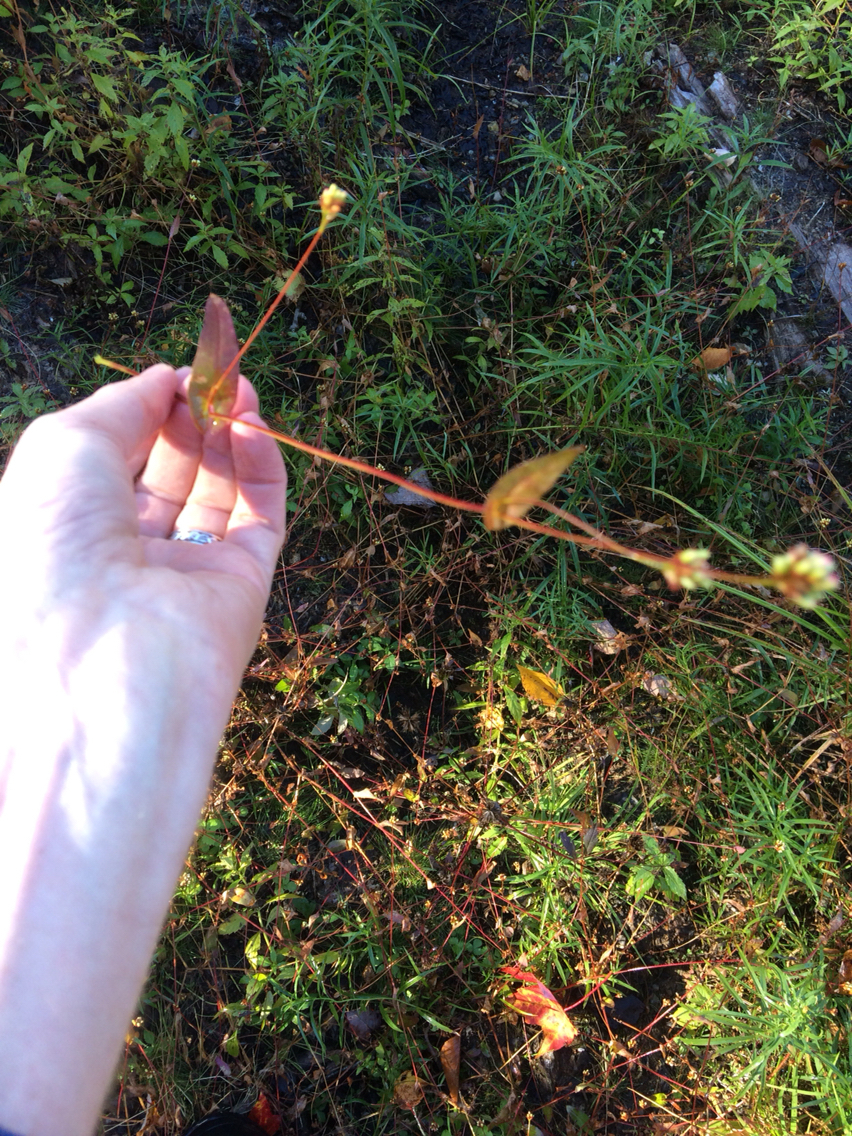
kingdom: Plantae
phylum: Tracheophyta
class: Magnoliopsida
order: Caryophyllales
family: Polygonaceae
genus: Persicaria
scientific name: Persicaria sagittata
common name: American tearthumb
